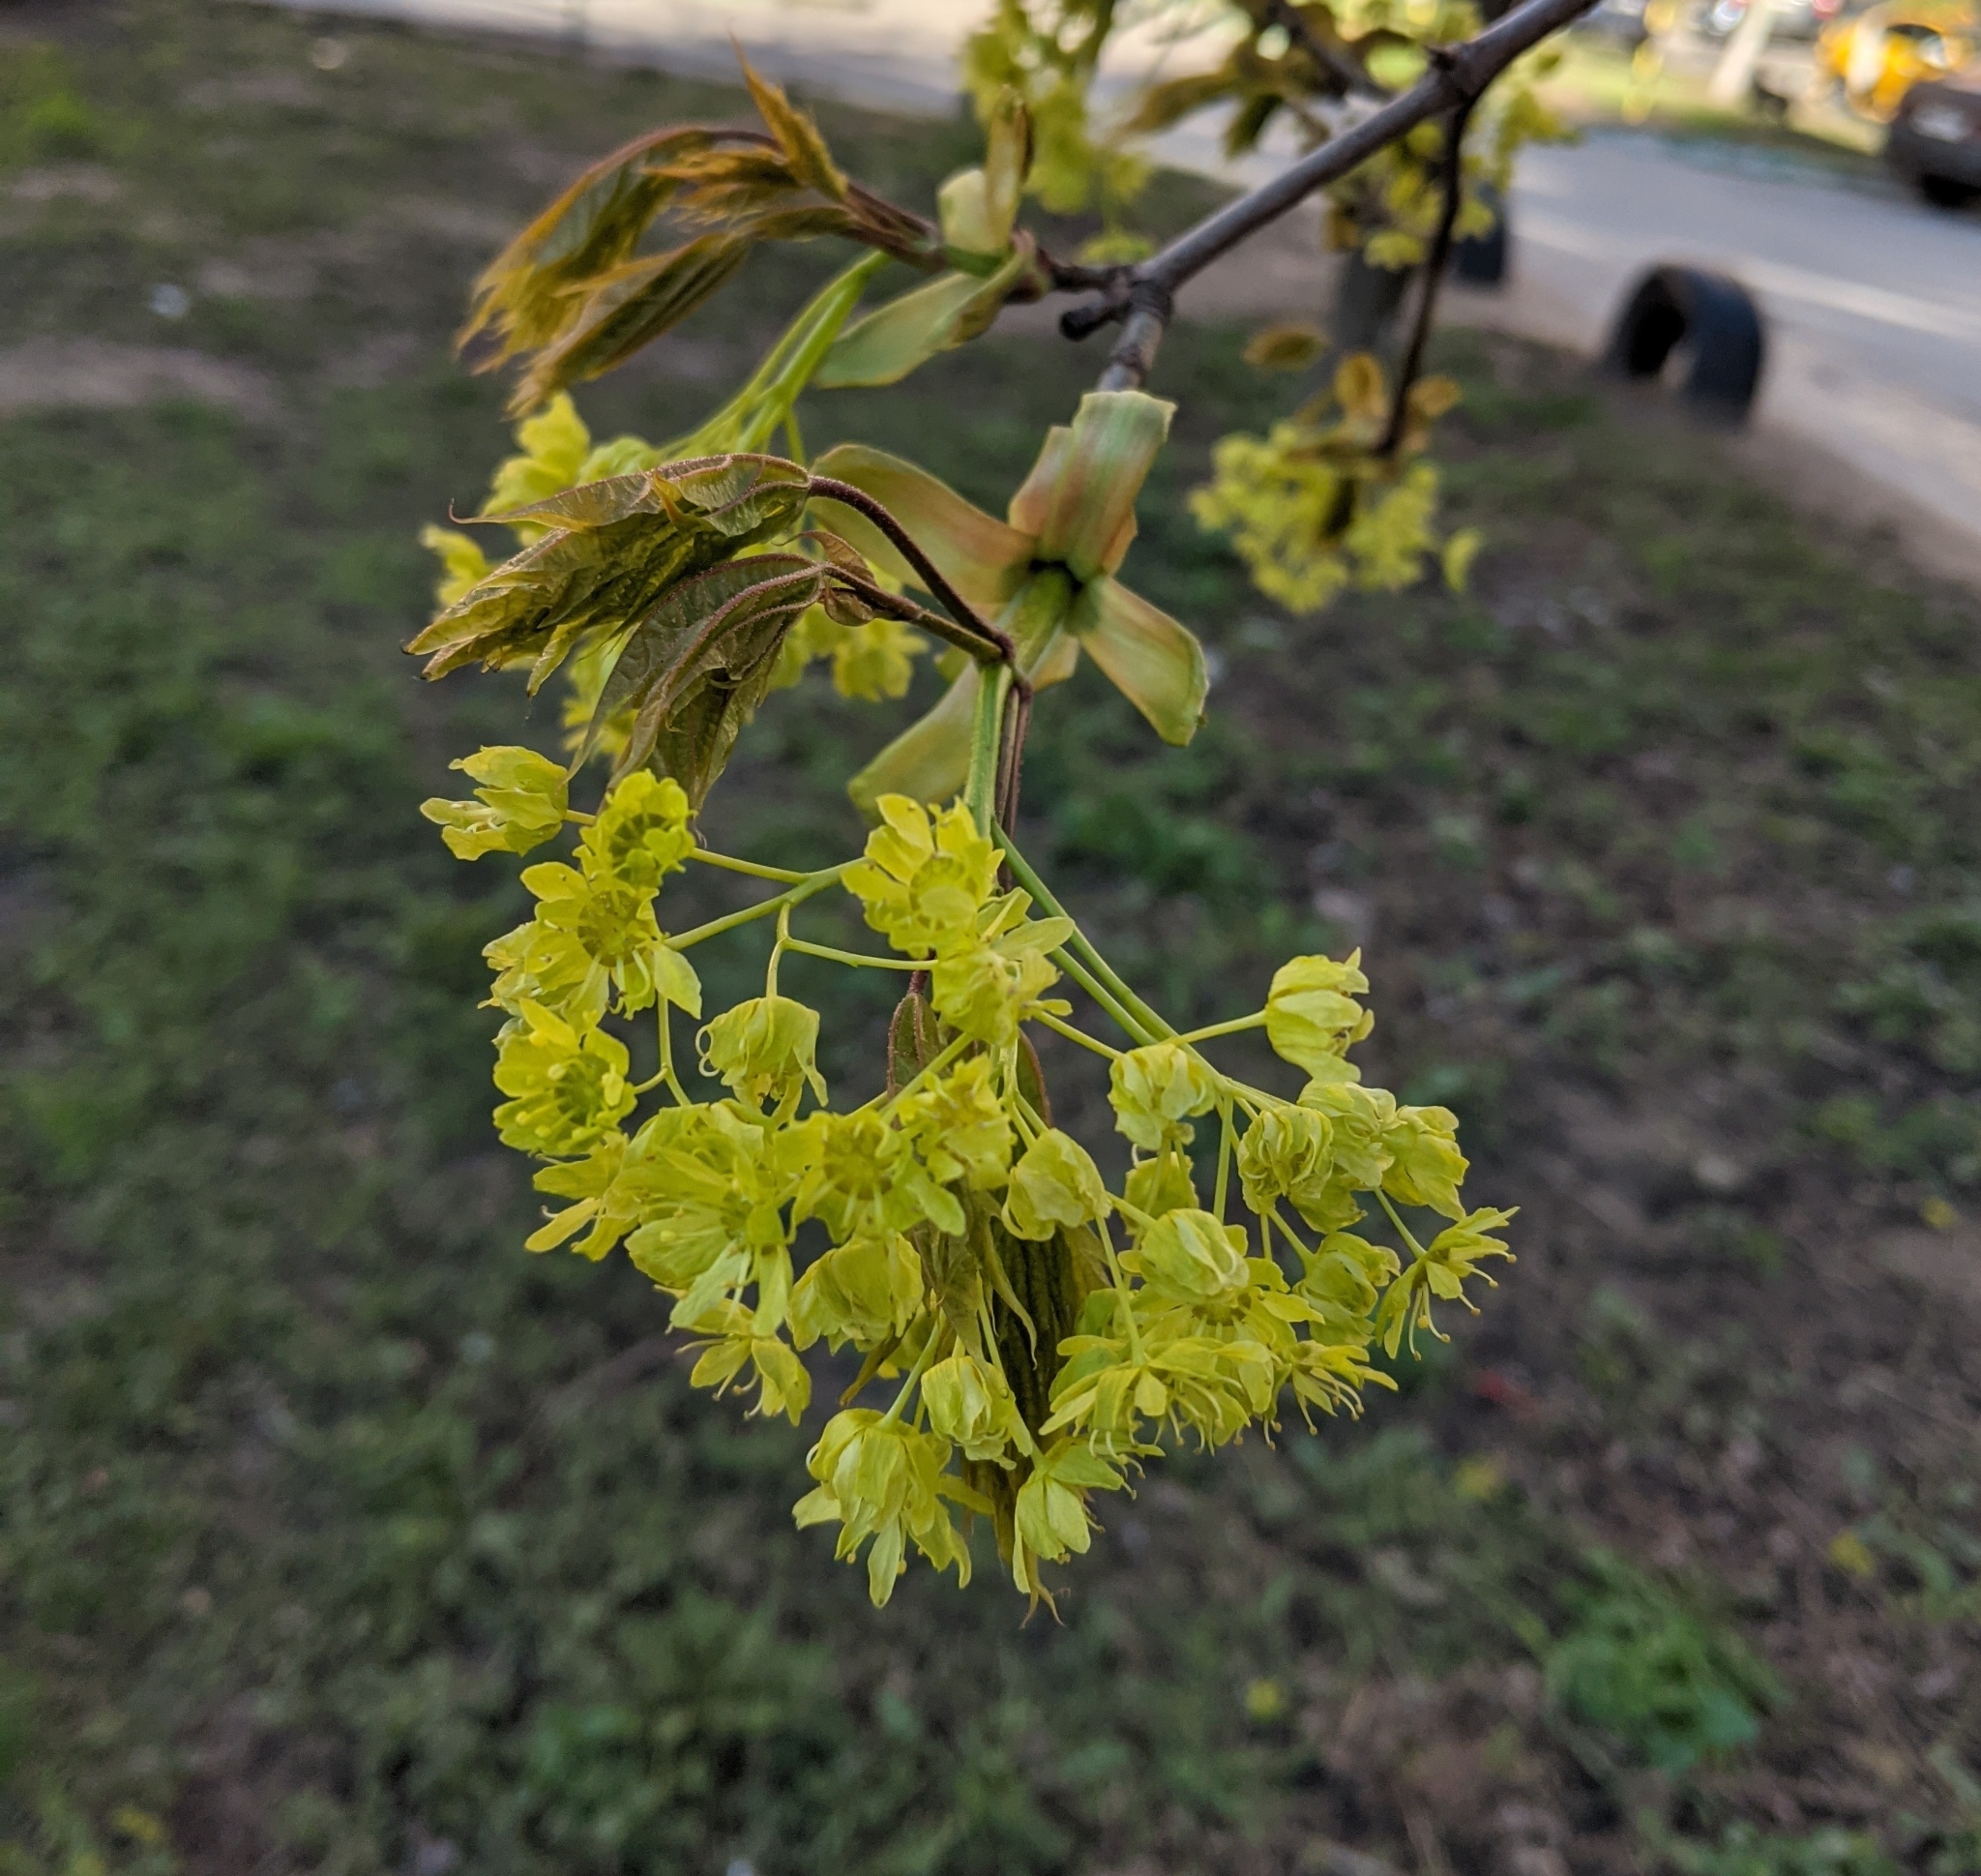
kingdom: Plantae
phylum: Tracheophyta
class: Magnoliopsida
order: Sapindales
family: Sapindaceae
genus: Acer
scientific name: Acer platanoides
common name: Norway maple
